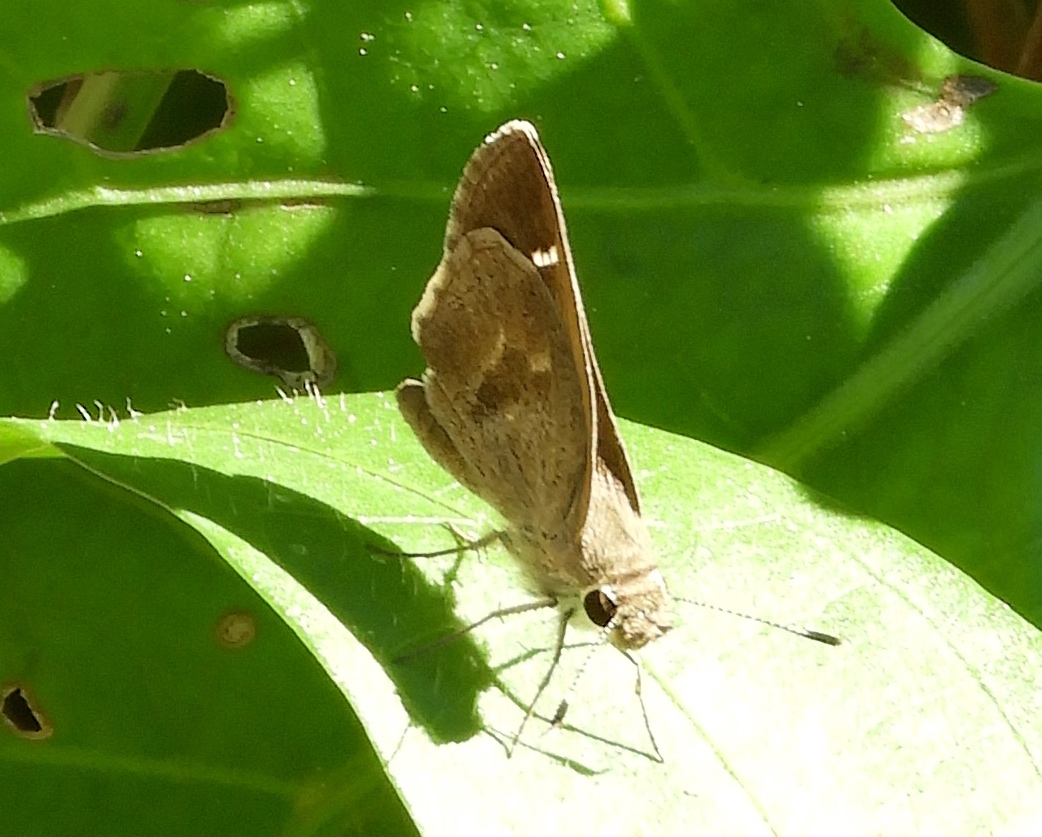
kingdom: Animalia
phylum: Arthropoda
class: Insecta
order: Lepidoptera
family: Hesperiidae
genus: Lerodea
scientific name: Lerodea arabus
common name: Violet-clouded skipper
